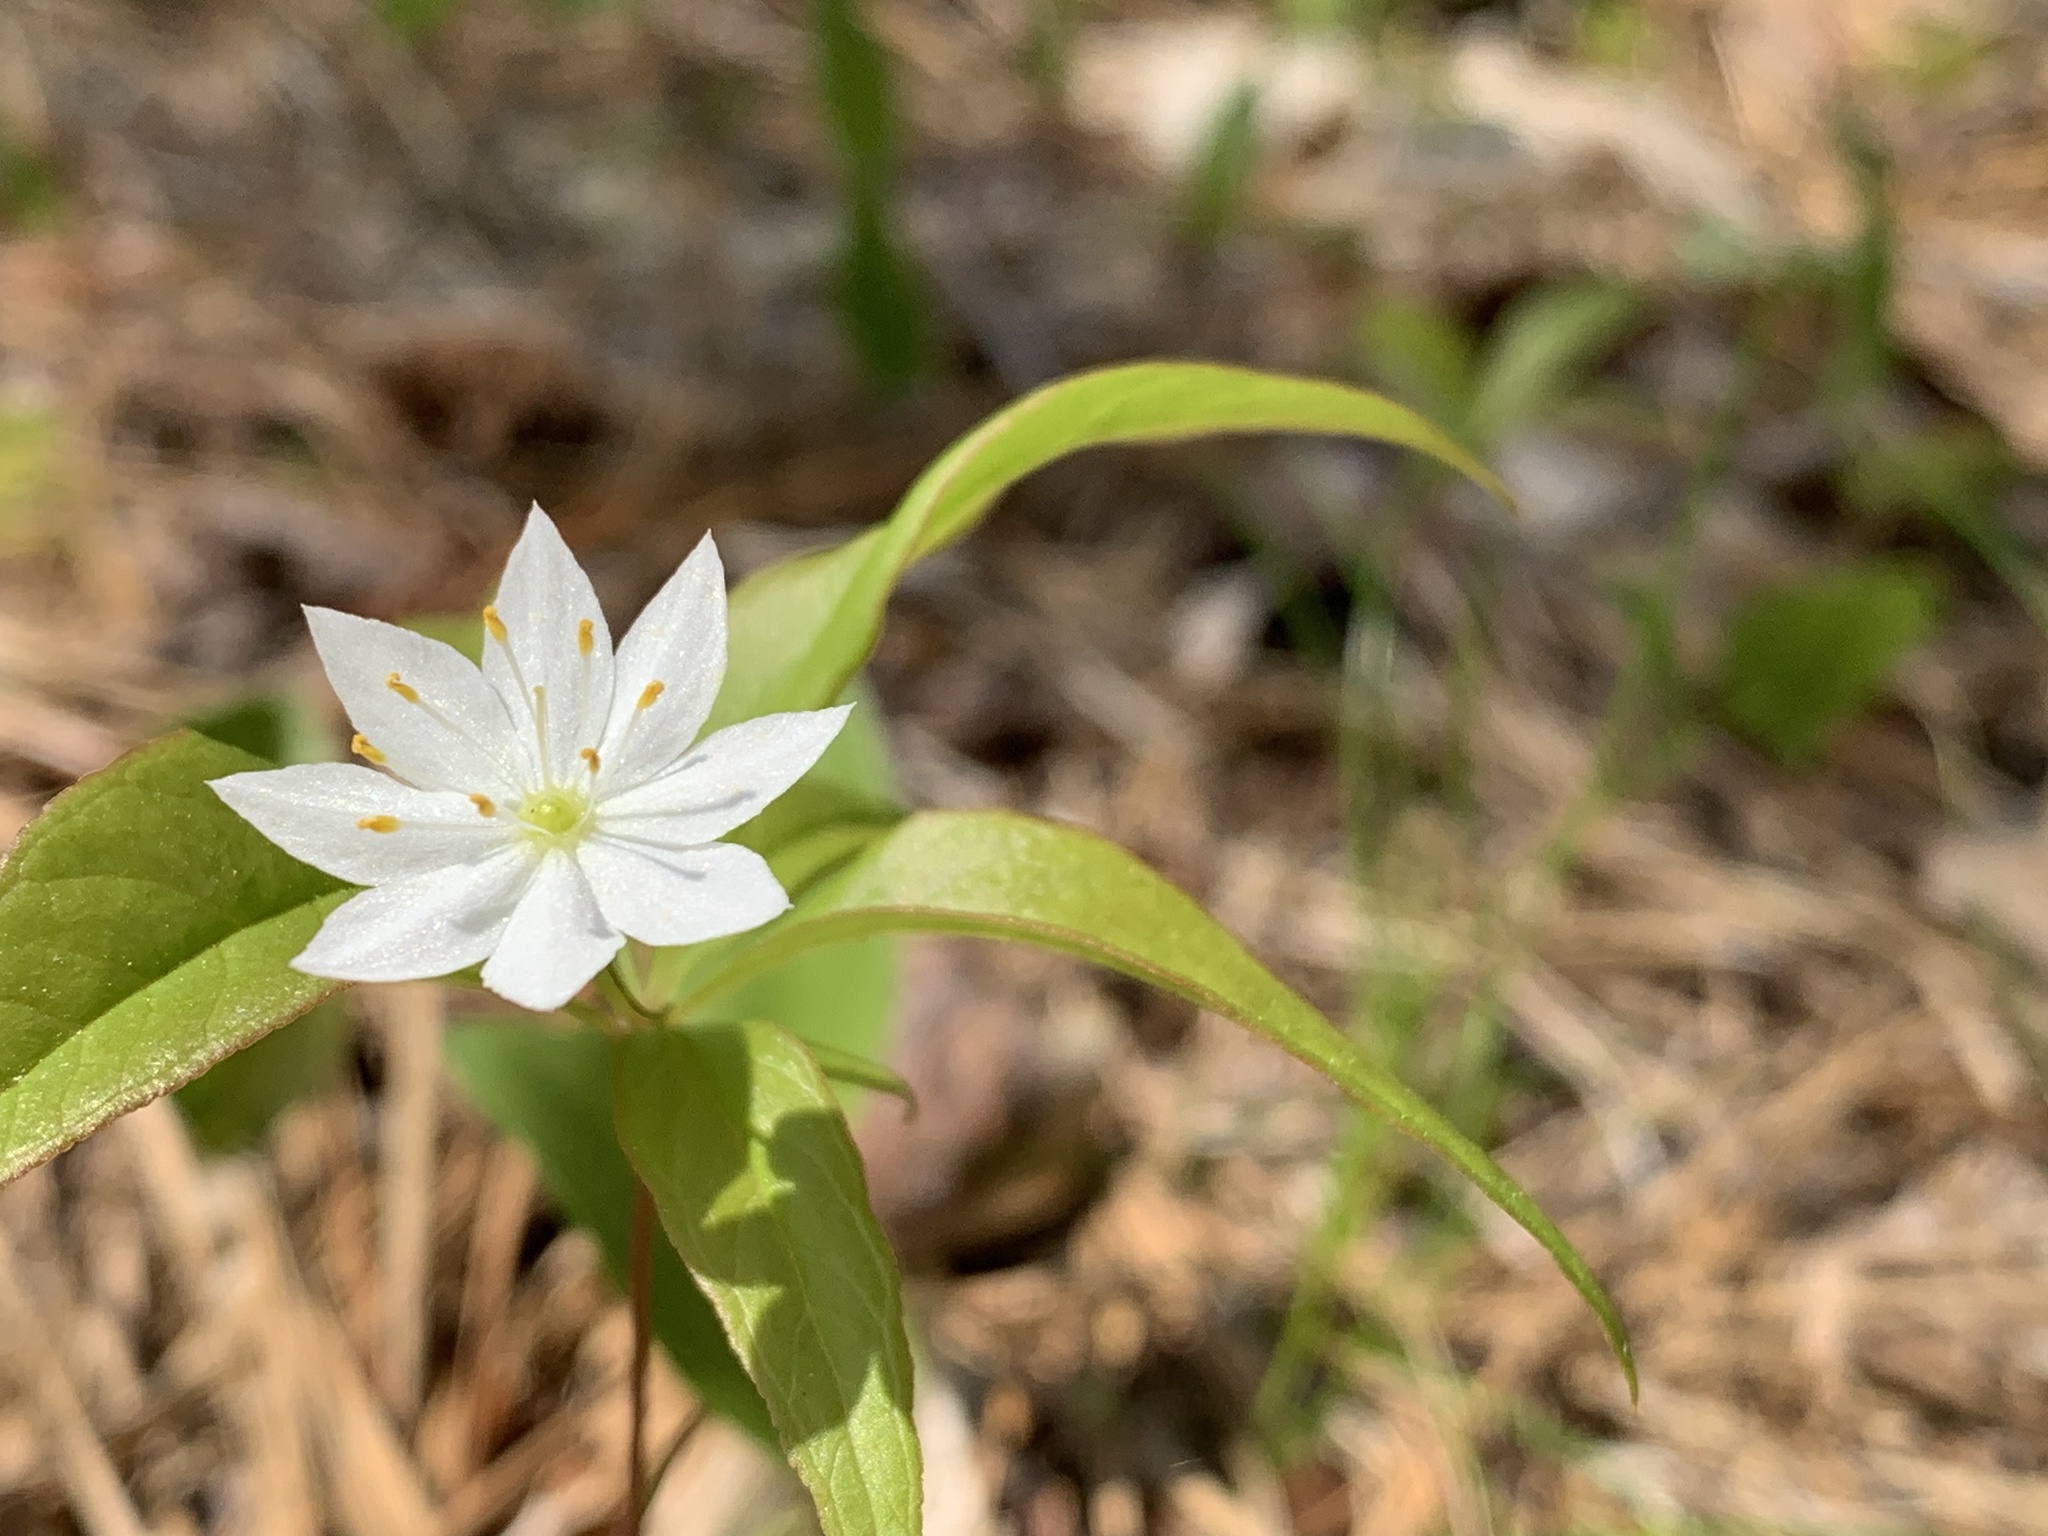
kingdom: Plantae
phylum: Tracheophyta
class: Magnoliopsida
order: Ericales
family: Primulaceae
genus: Lysimachia
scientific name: Lysimachia borealis
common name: American starflower
